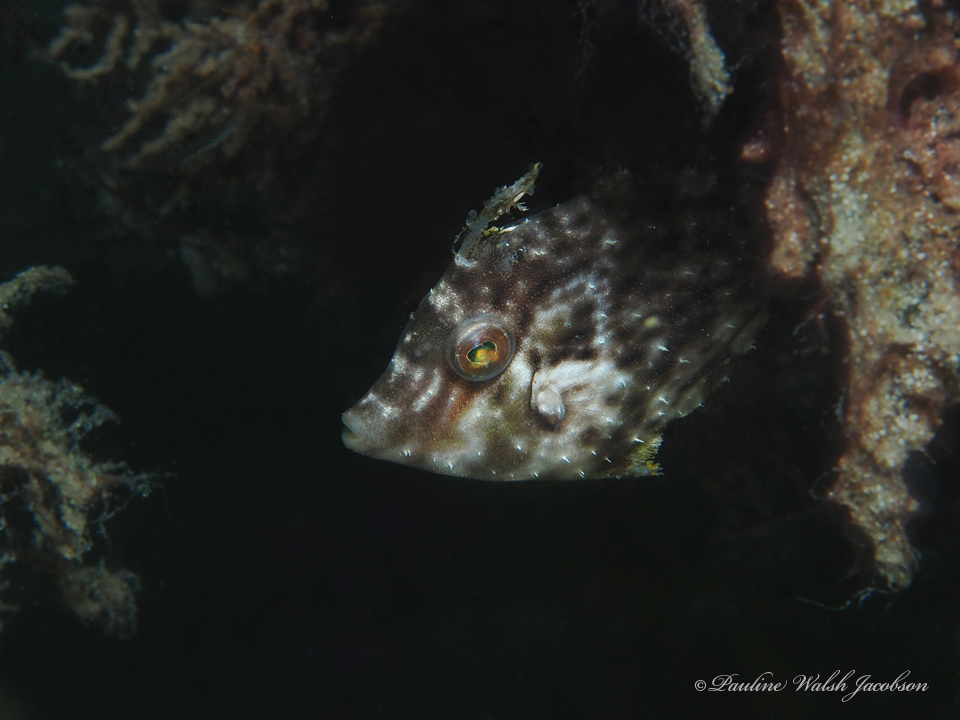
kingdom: Animalia
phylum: Chordata
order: Tetraodontiformes
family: Monacanthidae
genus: Stephanolepis
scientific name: Stephanolepis hispidus
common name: Planehead filefish
